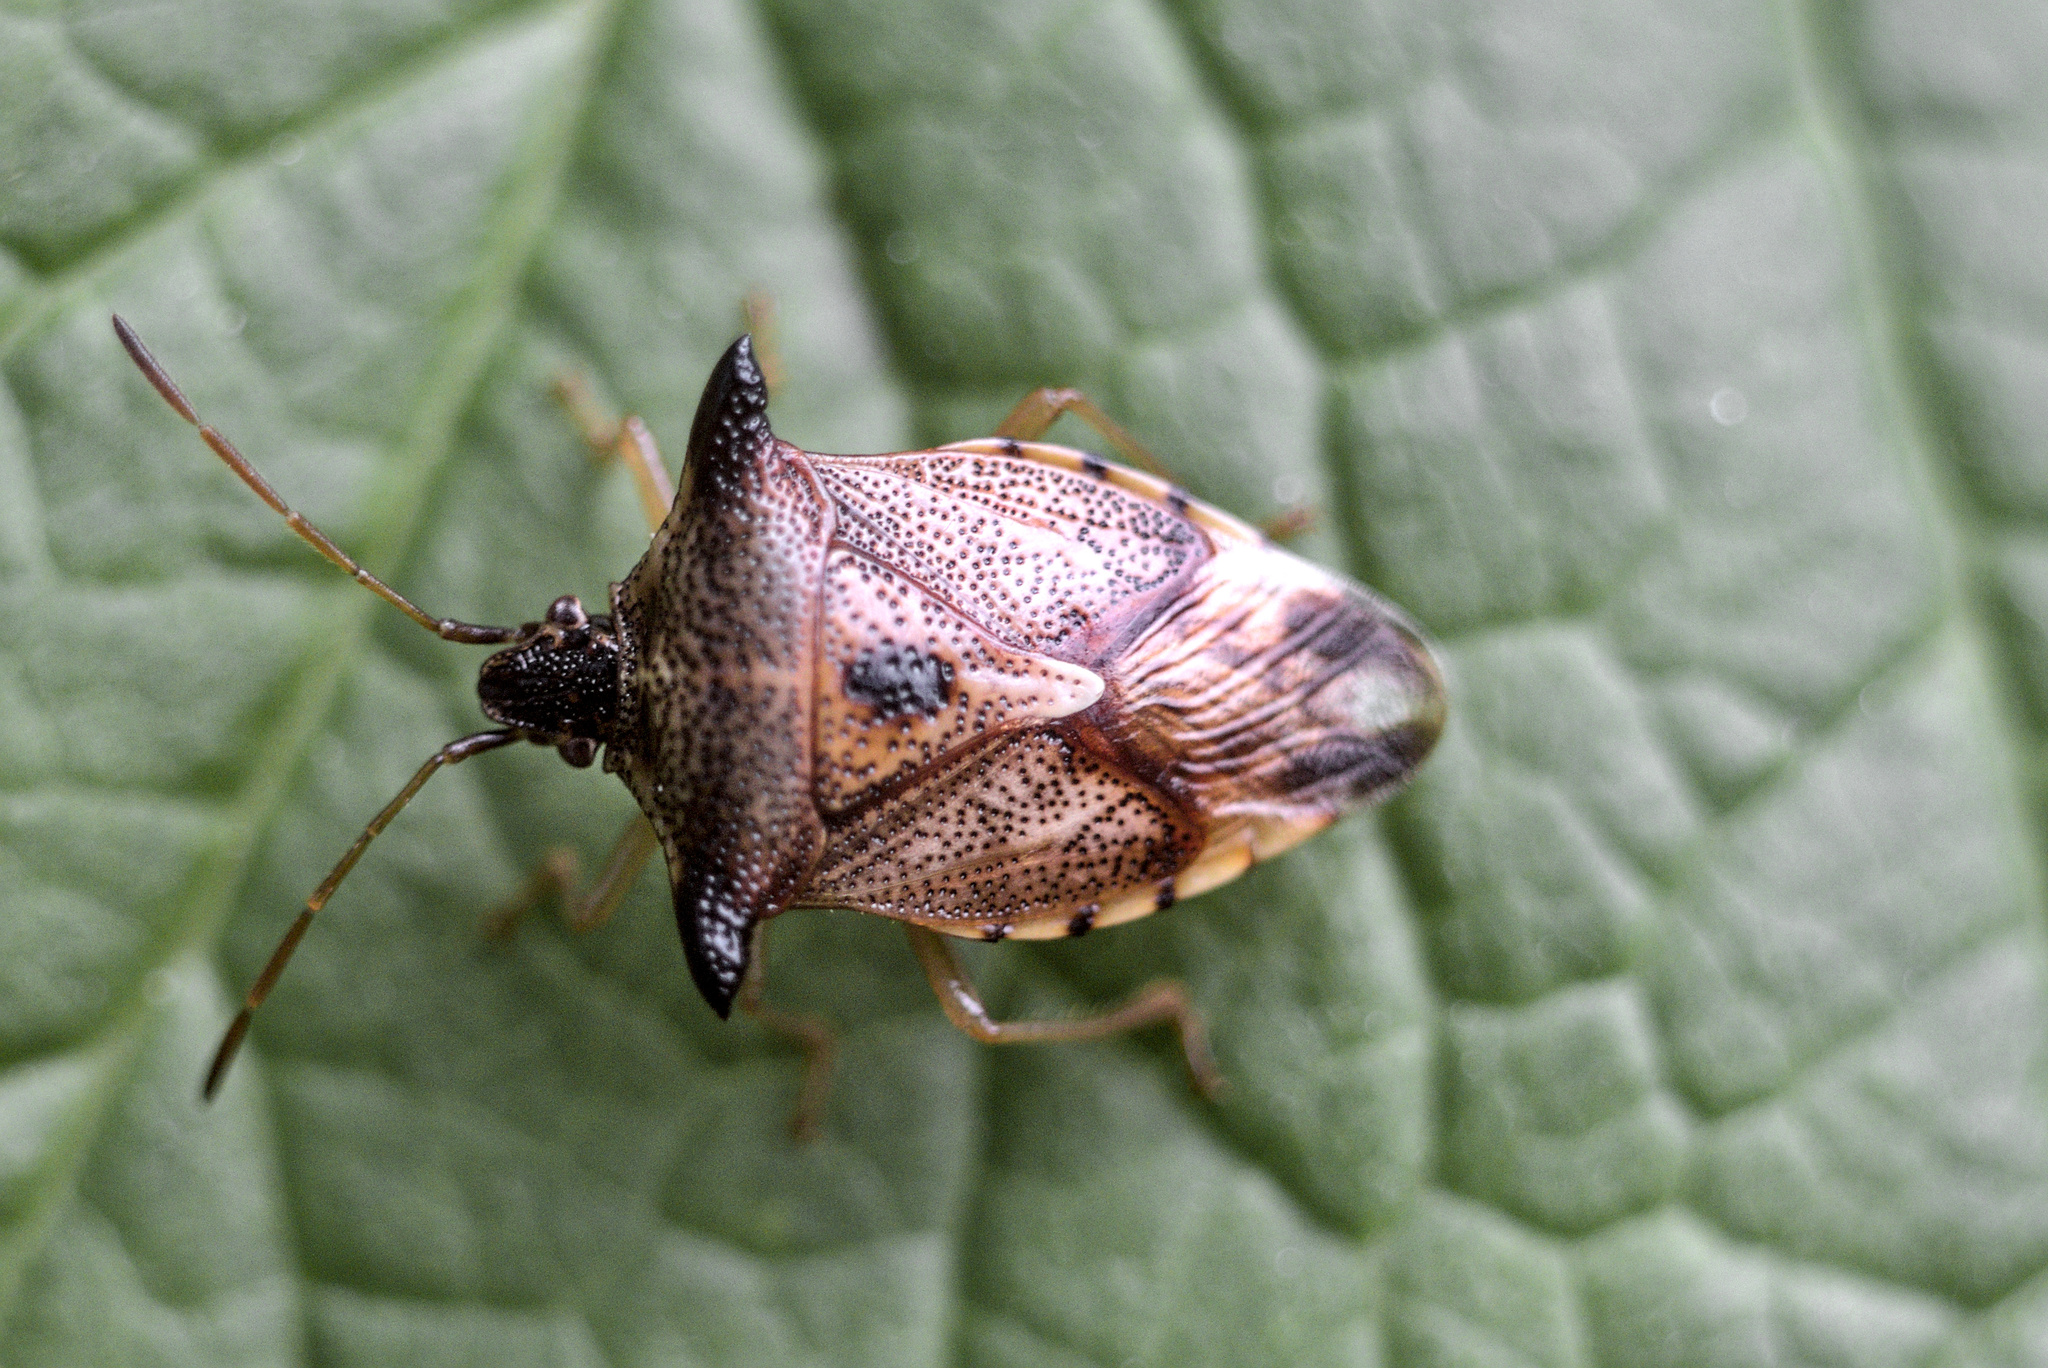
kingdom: Animalia
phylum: Arthropoda
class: Insecta
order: Hemiptera
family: Acanthosomatidae
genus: Elasmucha
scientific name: Elasmucha ferrugata
